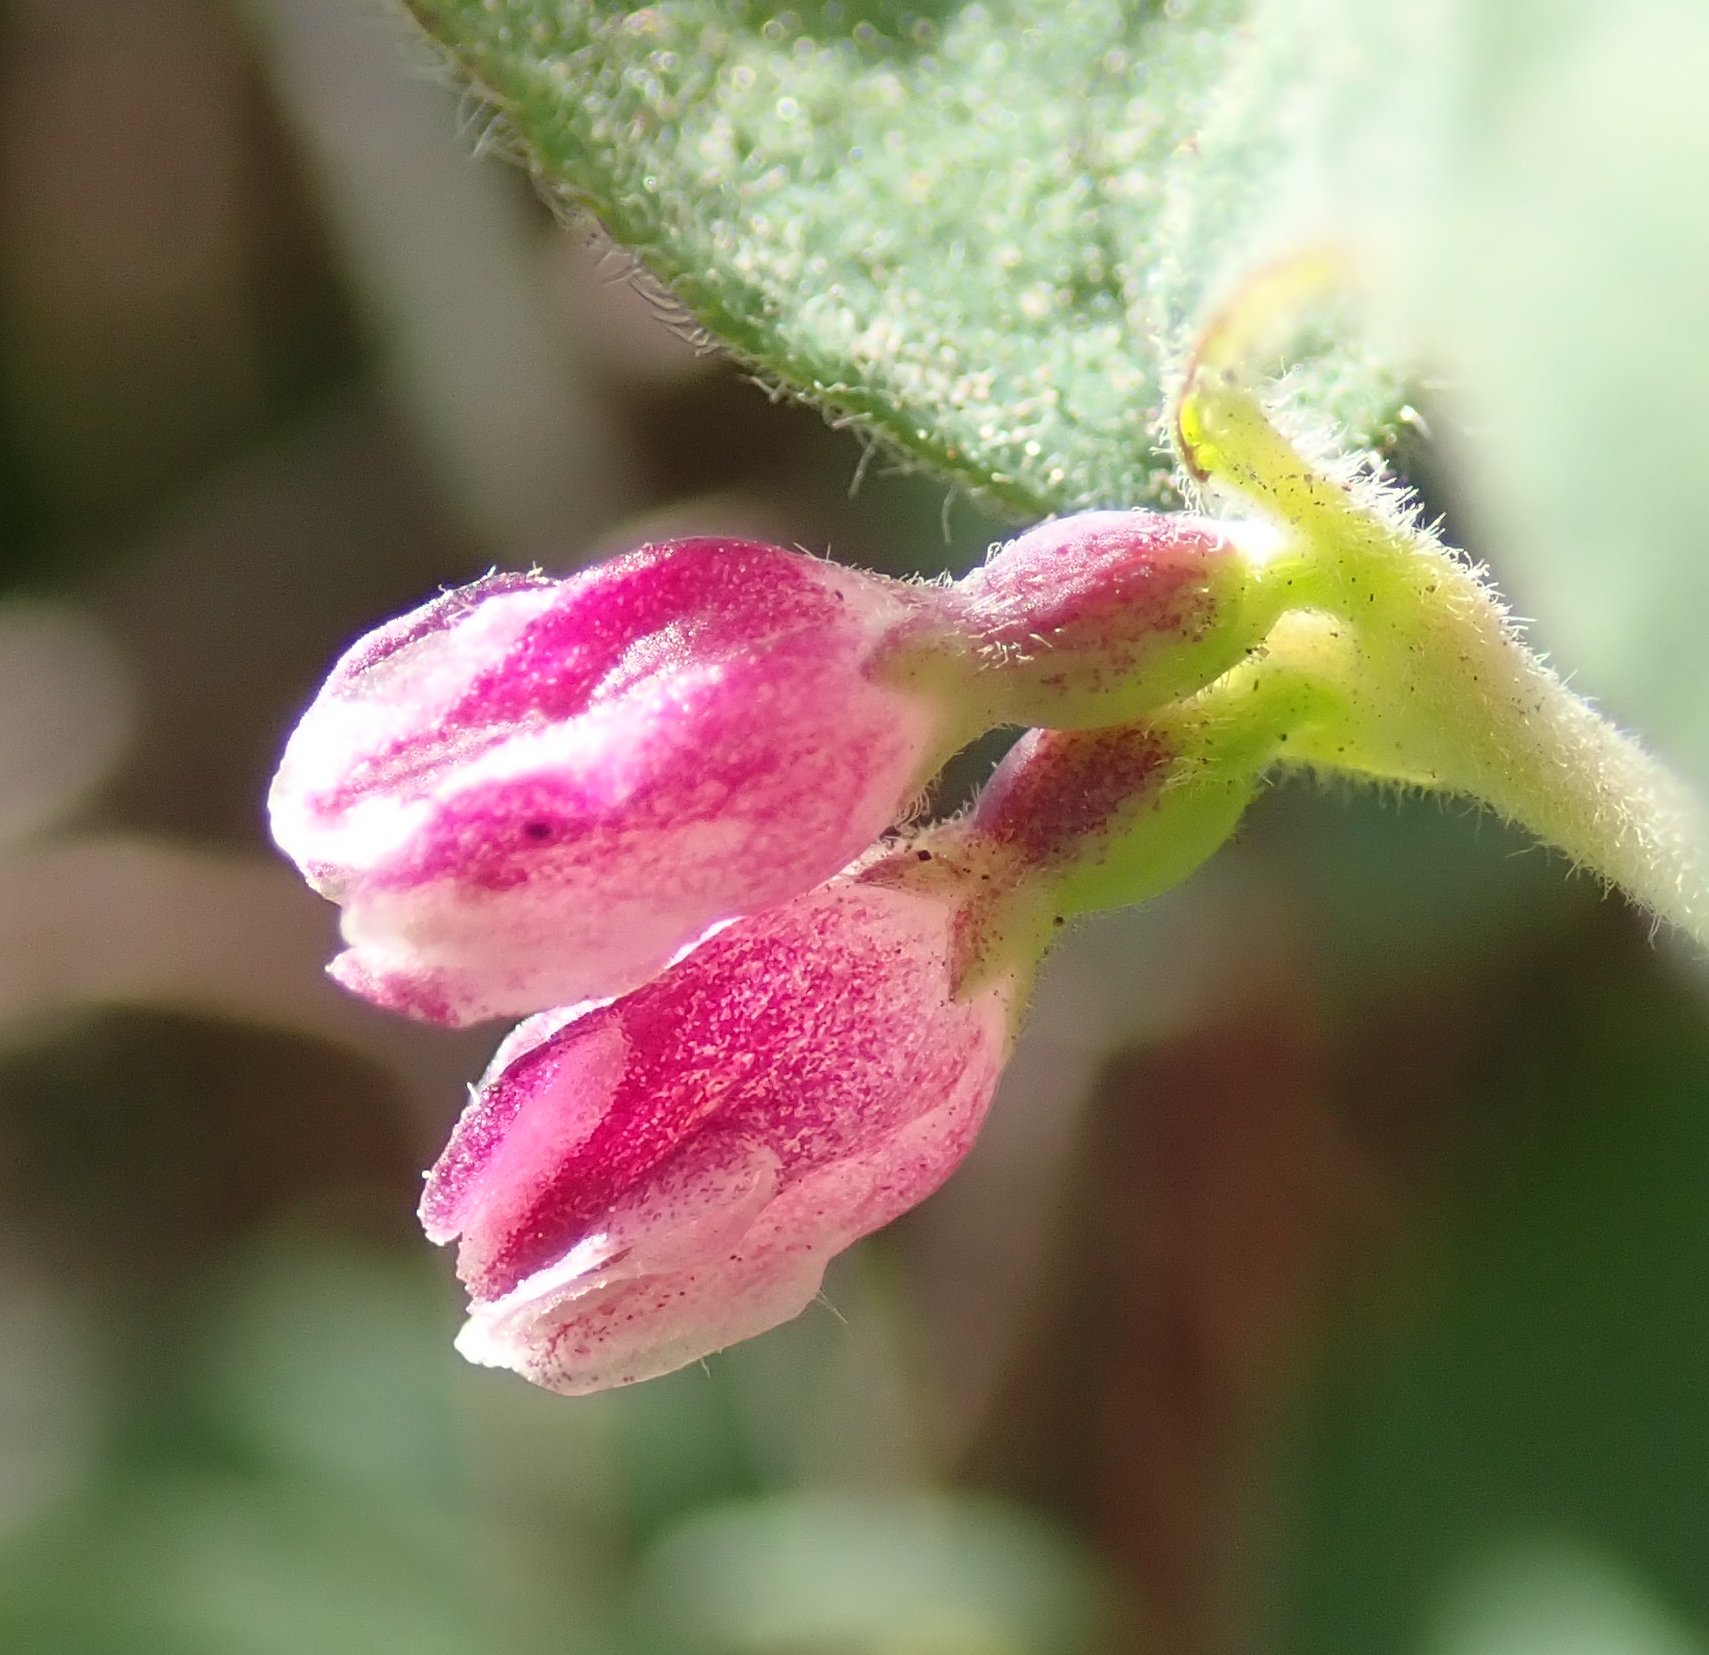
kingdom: Plantae
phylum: Tracheophyta
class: Magnoliopsida
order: Dipsacales
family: Caprifoliaceae
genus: Symphoricarpos
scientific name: Symphoricarpos mollis
